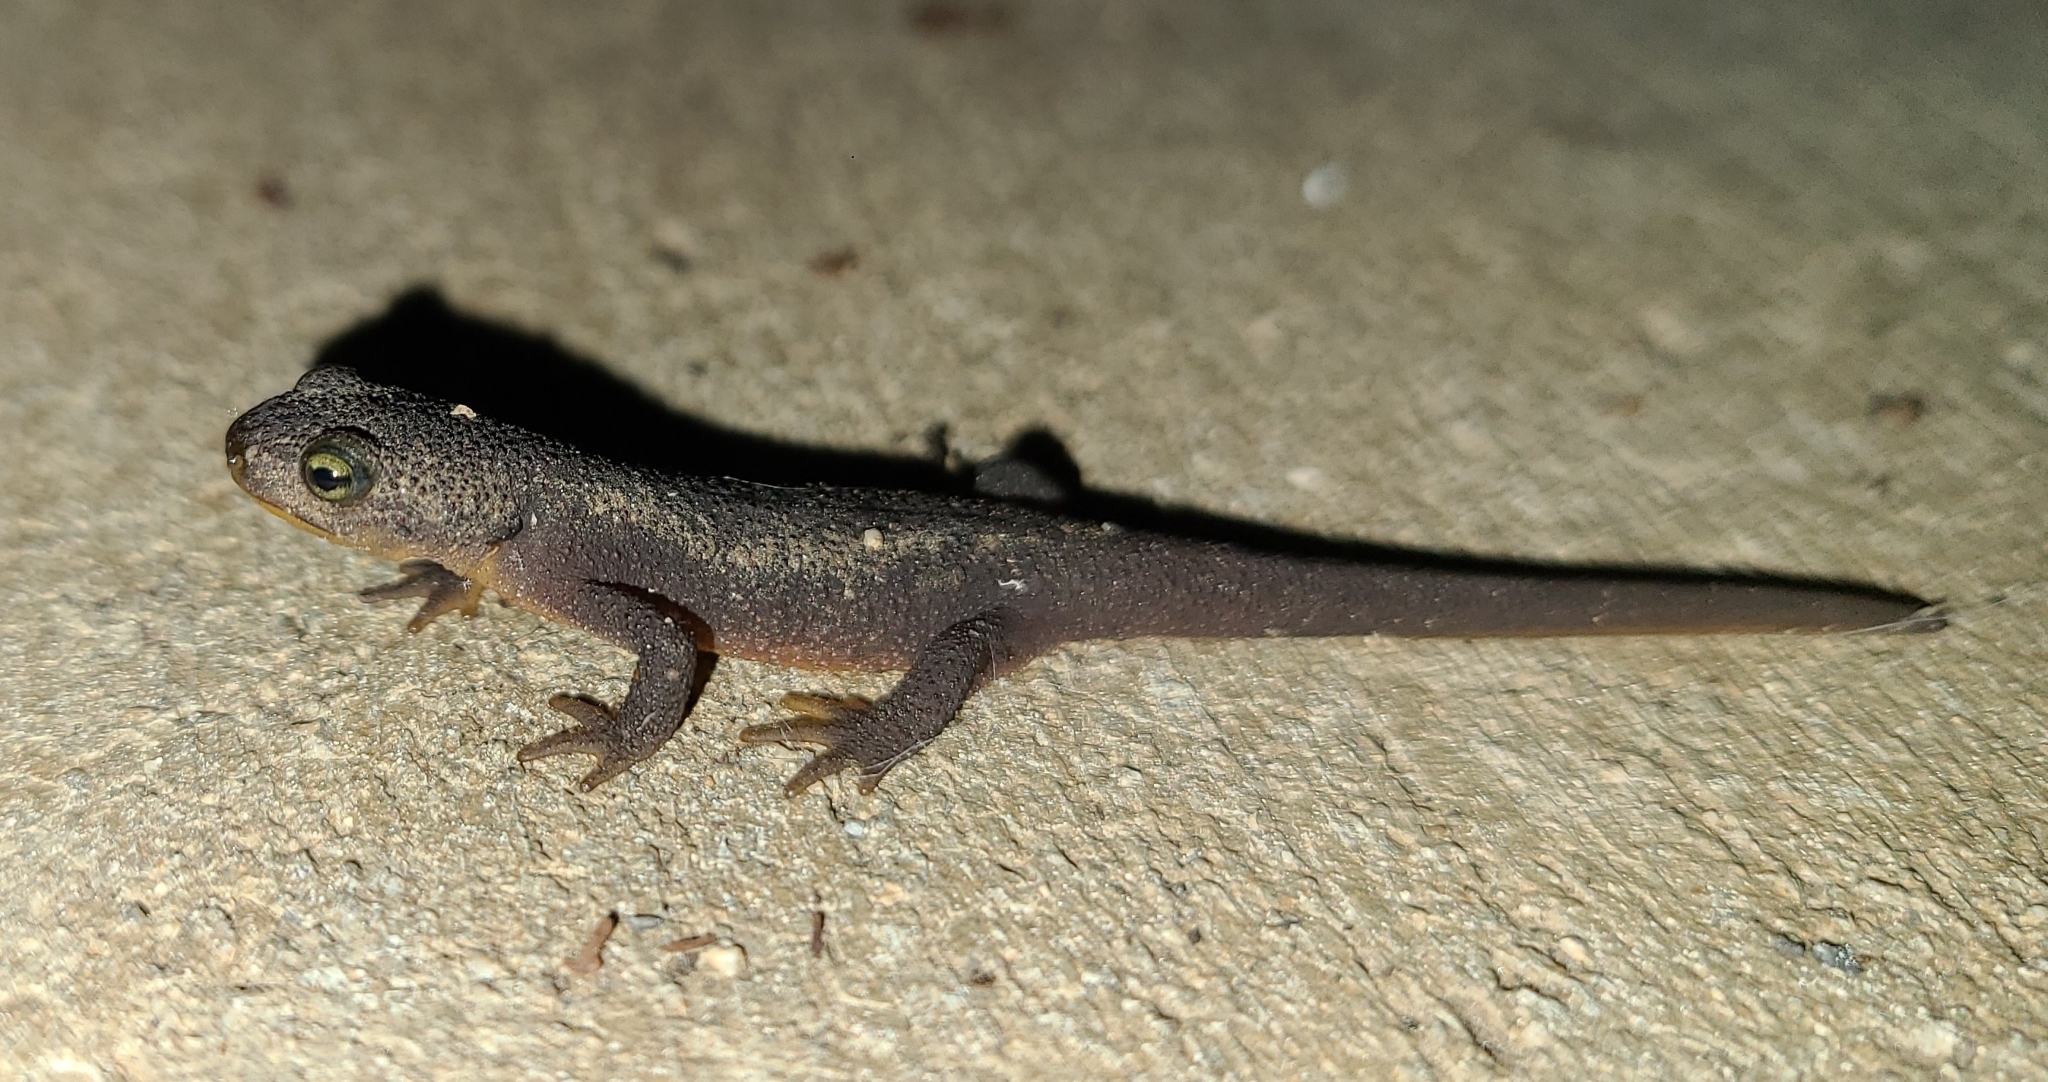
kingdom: Animalia
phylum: Chordata
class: Amphibia
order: Caudata
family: Salamandridae
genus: Taricha
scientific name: Taricha torosa
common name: California newt
